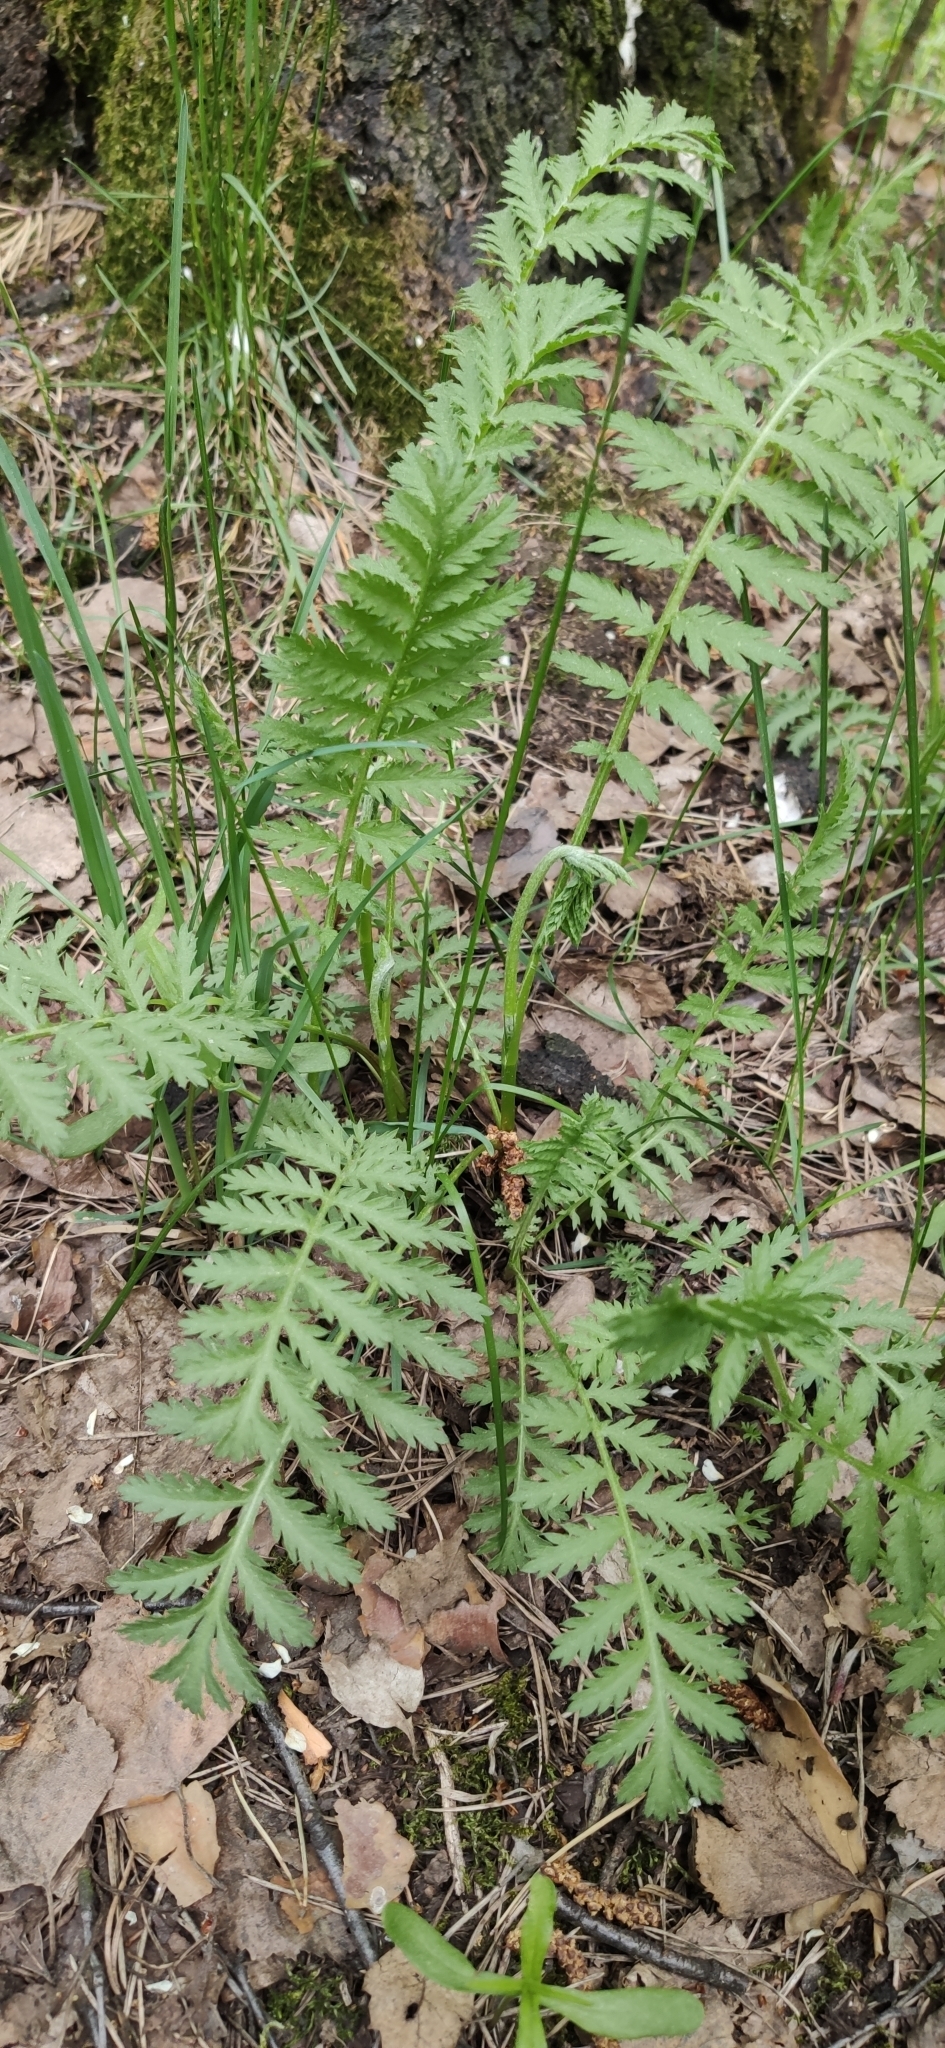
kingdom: Plantae
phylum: Tracheophyta
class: Magnoliopsida
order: Asterales
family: Asteraceae
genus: Tanacetum
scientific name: Tanacetum vulgare
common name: Common tansy
